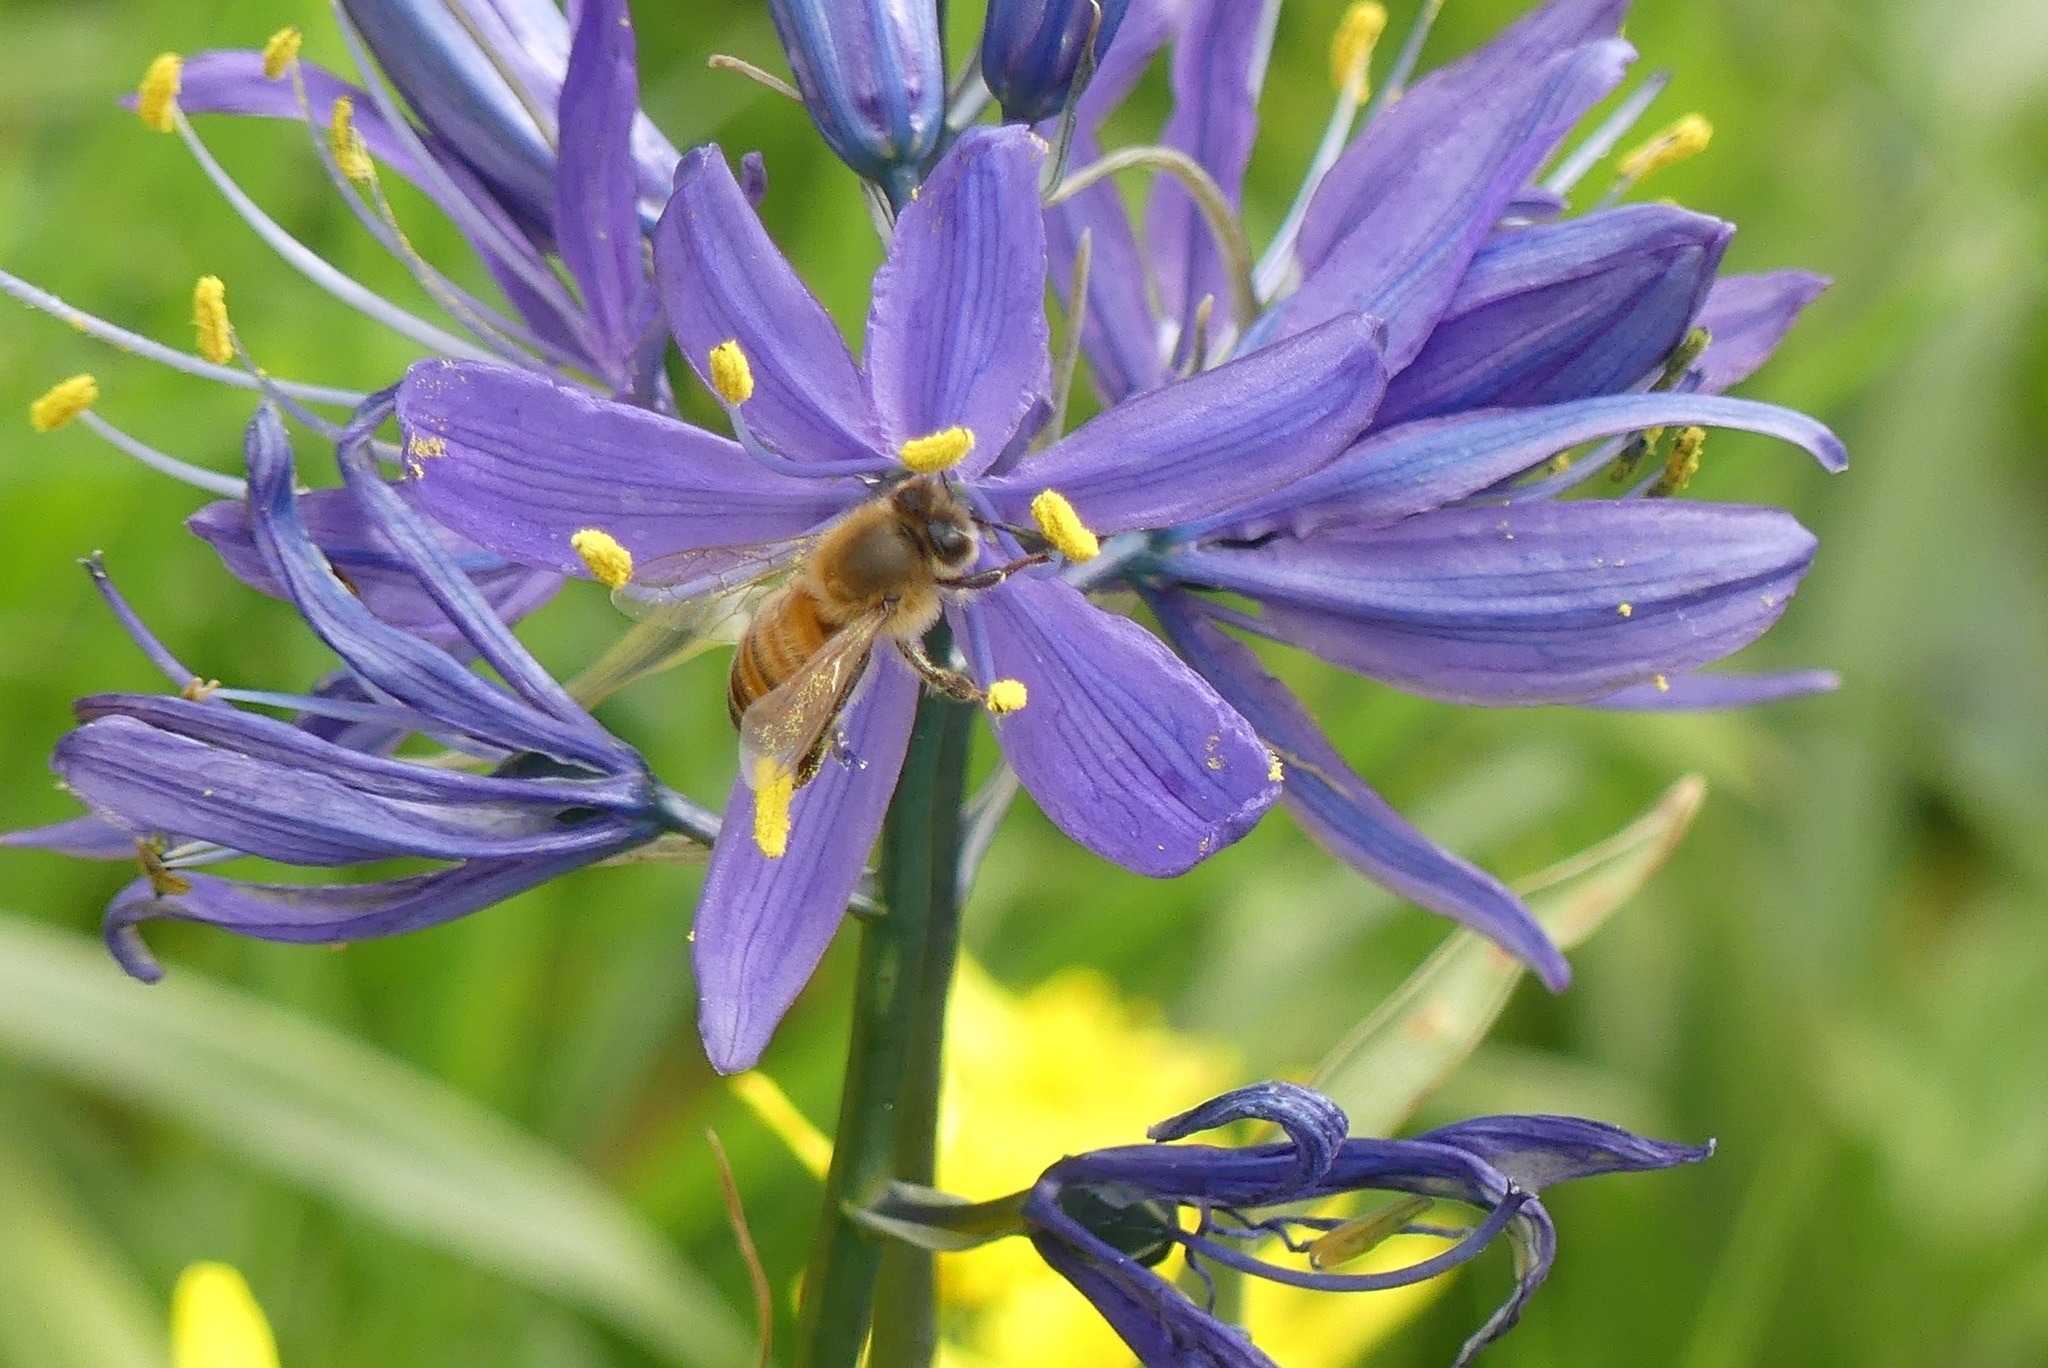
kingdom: Animalia
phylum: Arthropoda
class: Insecta
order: Hymenoptera
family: Apidae
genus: Apis
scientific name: Apis mellifera
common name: Honey bee
